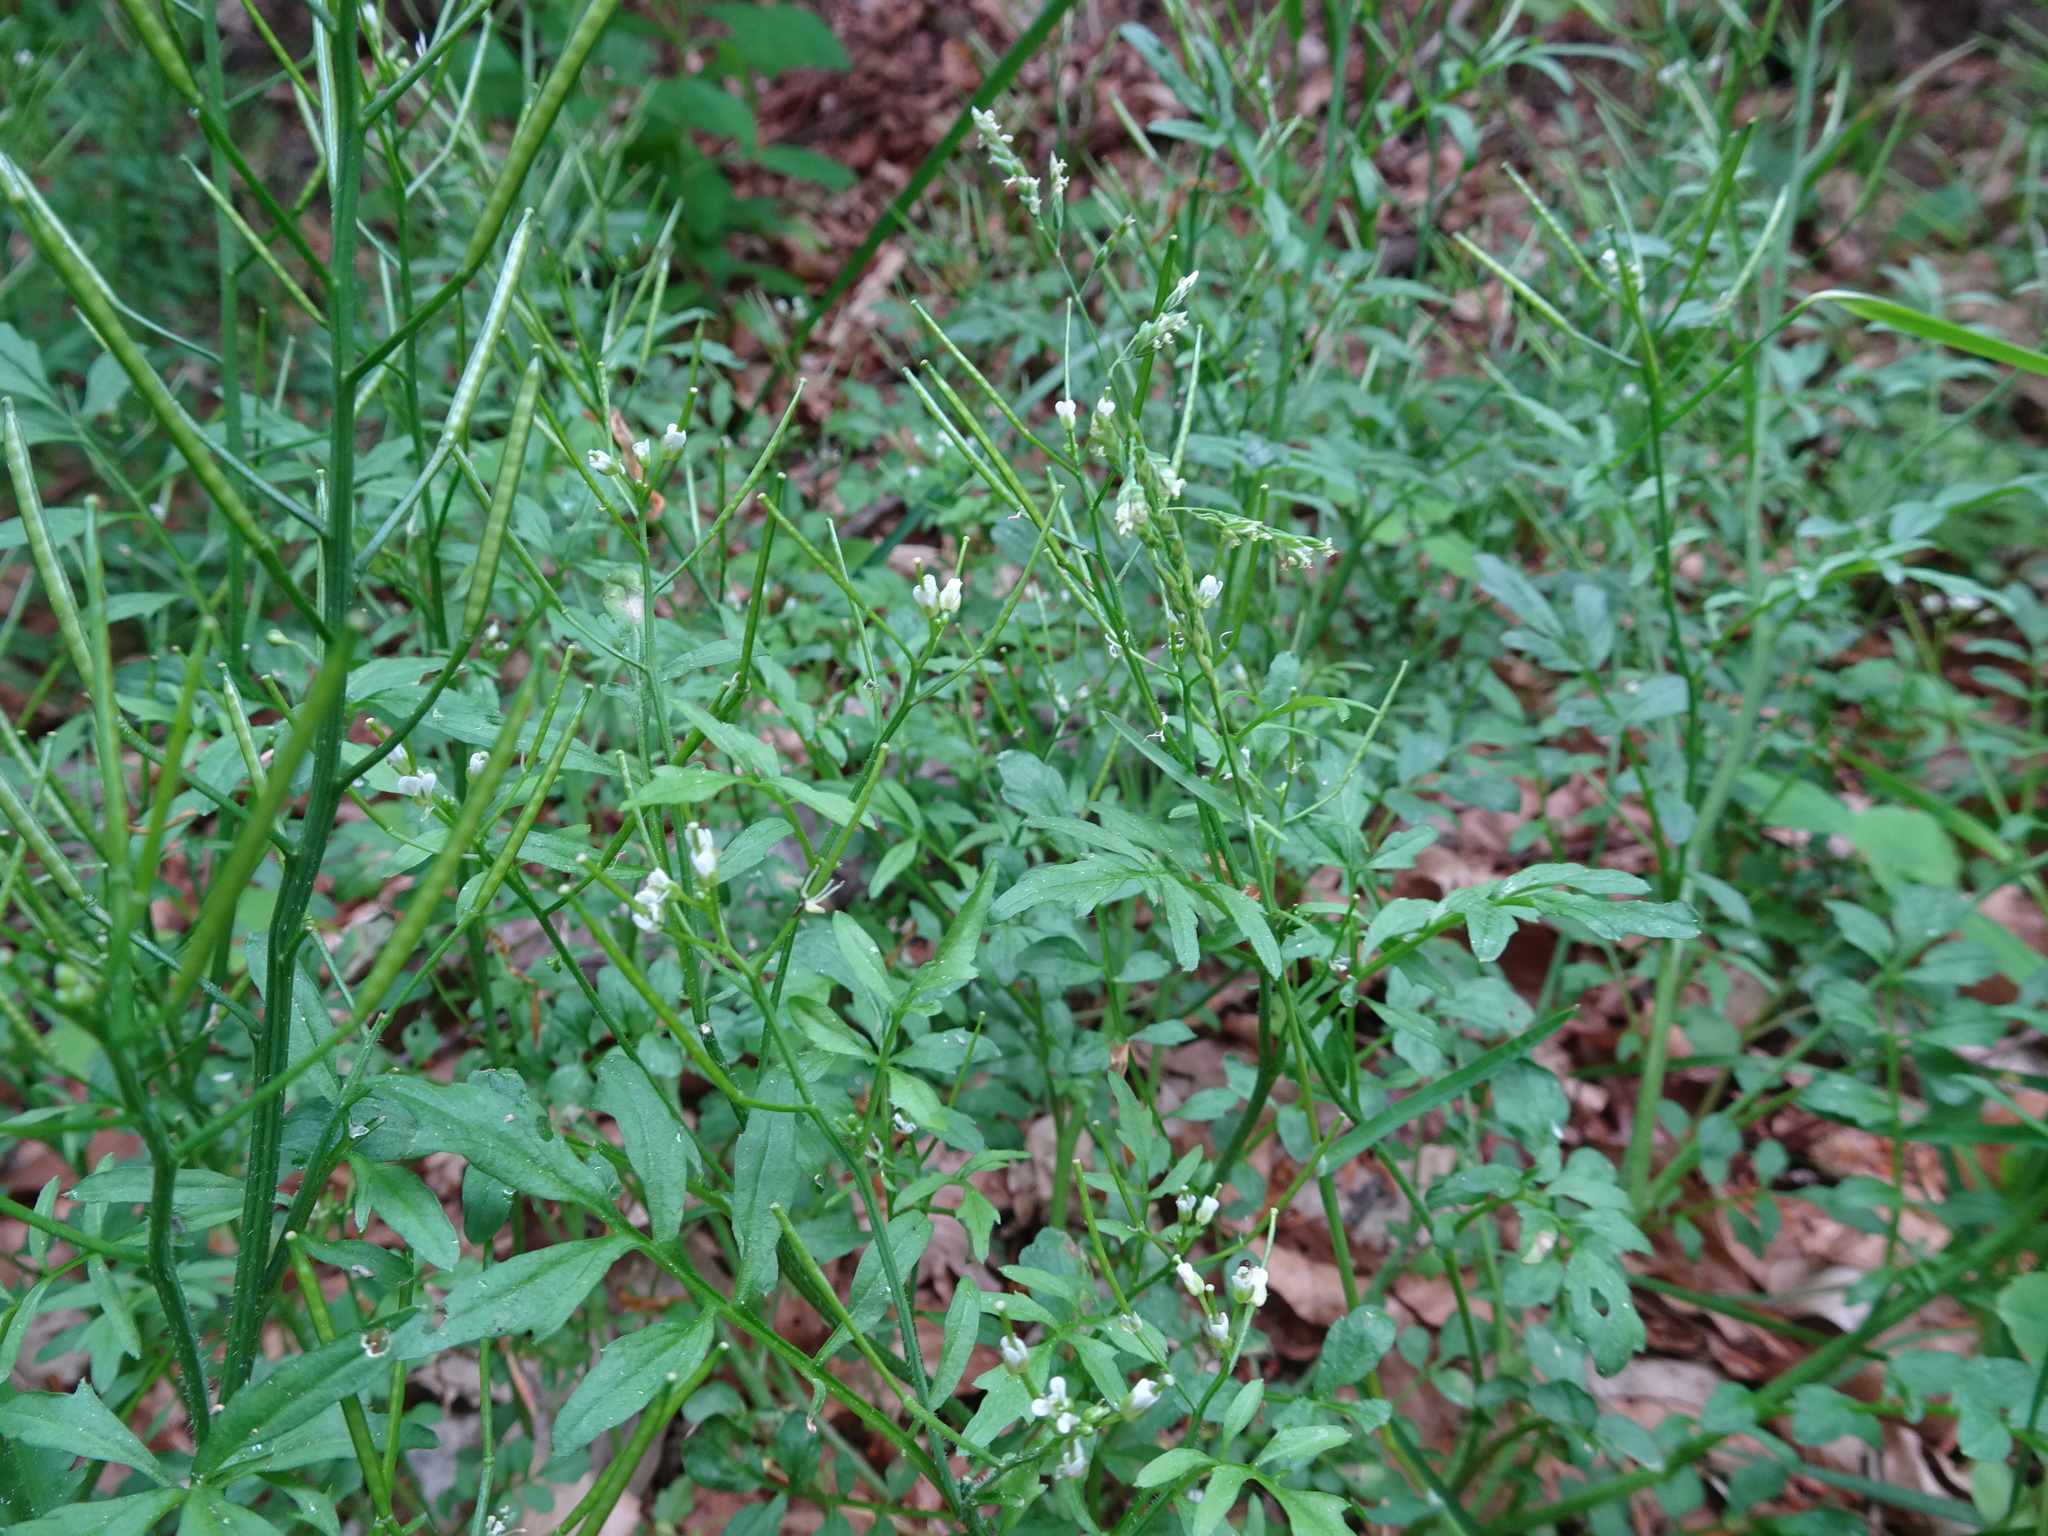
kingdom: Plantae
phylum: Tracheophyta
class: Magnoliopsida
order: Brassicales
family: Brassicaceae
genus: Cardamine
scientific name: Cardamine flexuosa
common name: Woodland bittercress
